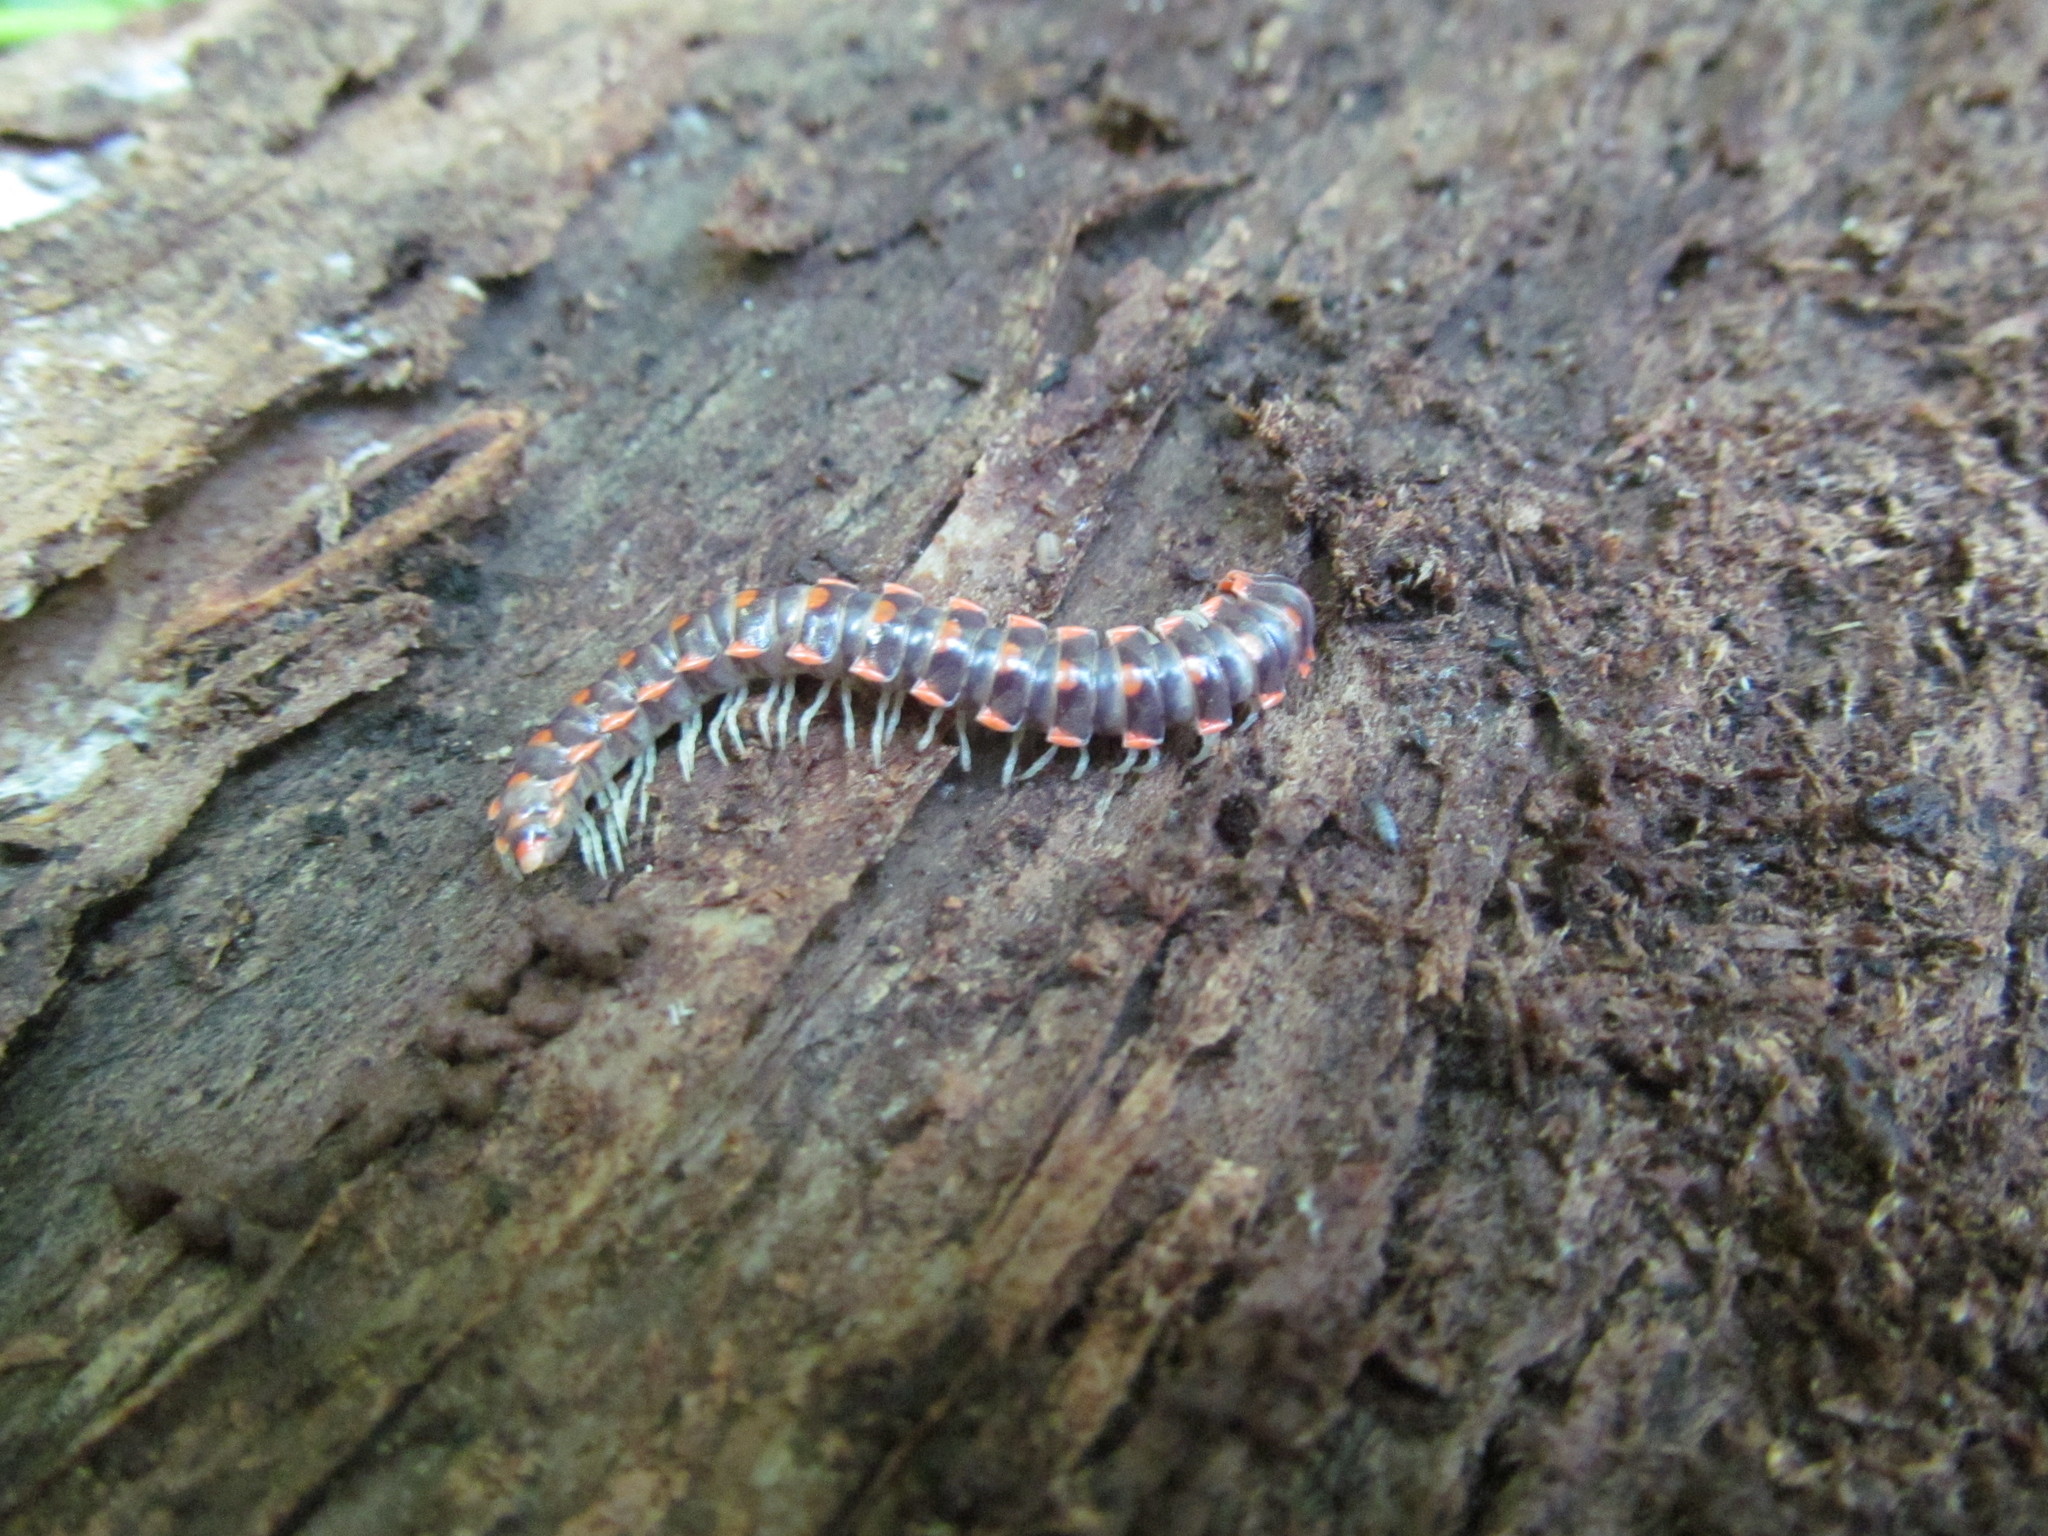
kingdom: Animalia
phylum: Arthropoda
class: Diplopoda
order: Polydesmida
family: Xystodesmidae
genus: Euryurus
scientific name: Euryurus leachii
